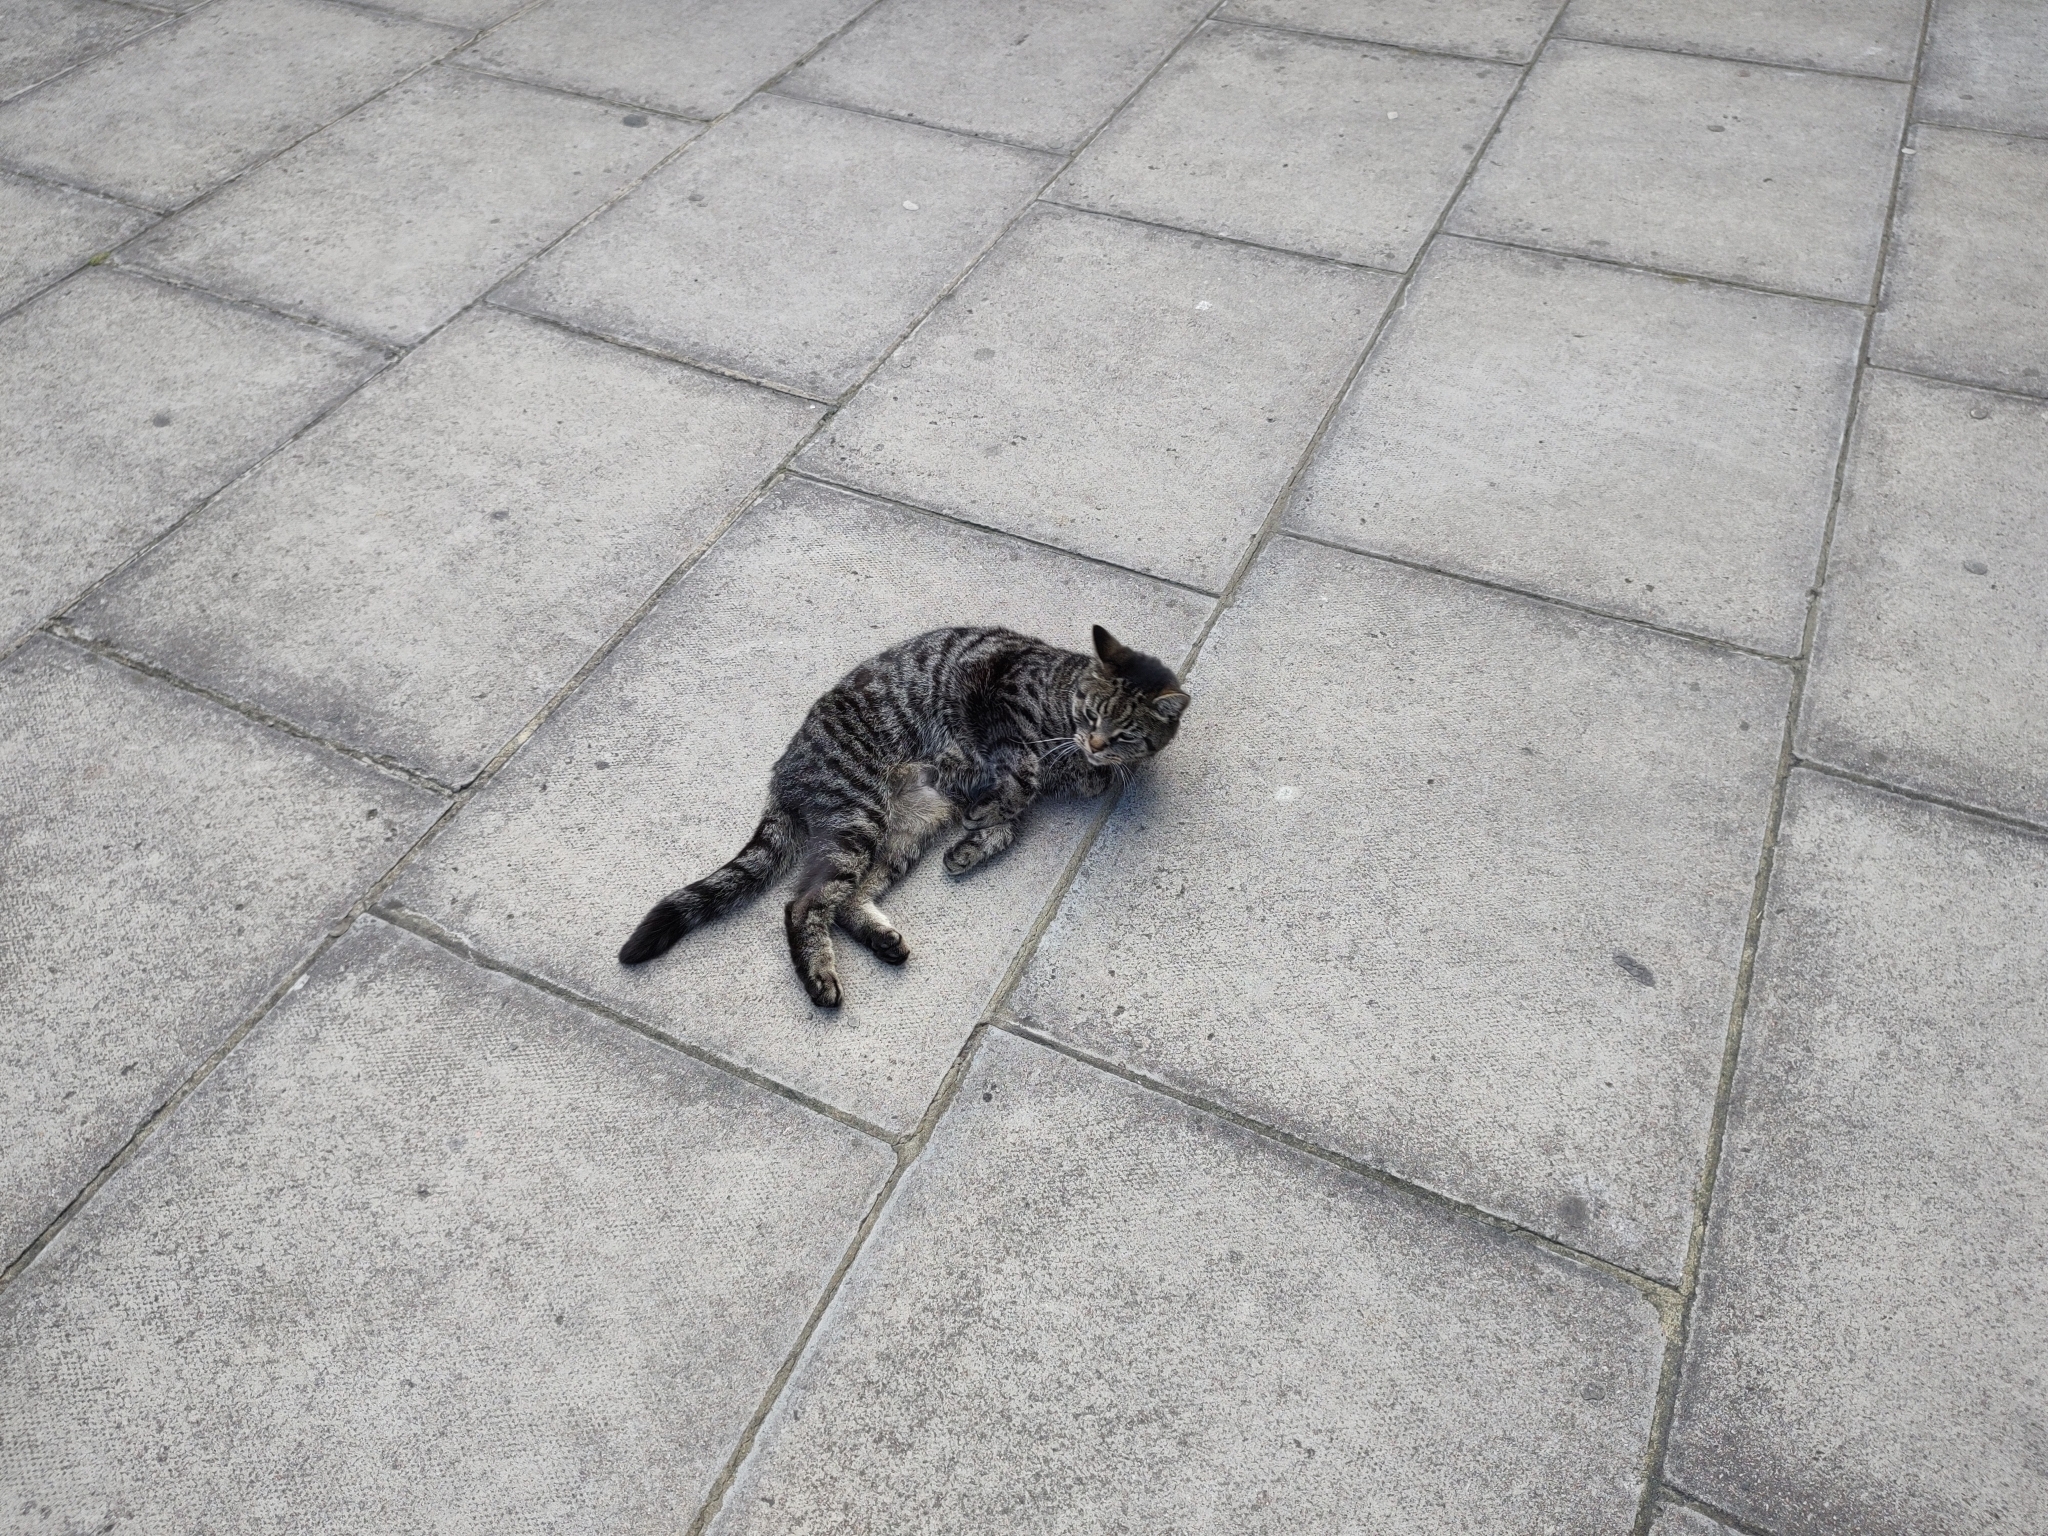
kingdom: Animalia
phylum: Chordata
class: Mammalia
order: Carnivora
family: Felidae
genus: Felis
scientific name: Felis catus
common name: Domestic cat
